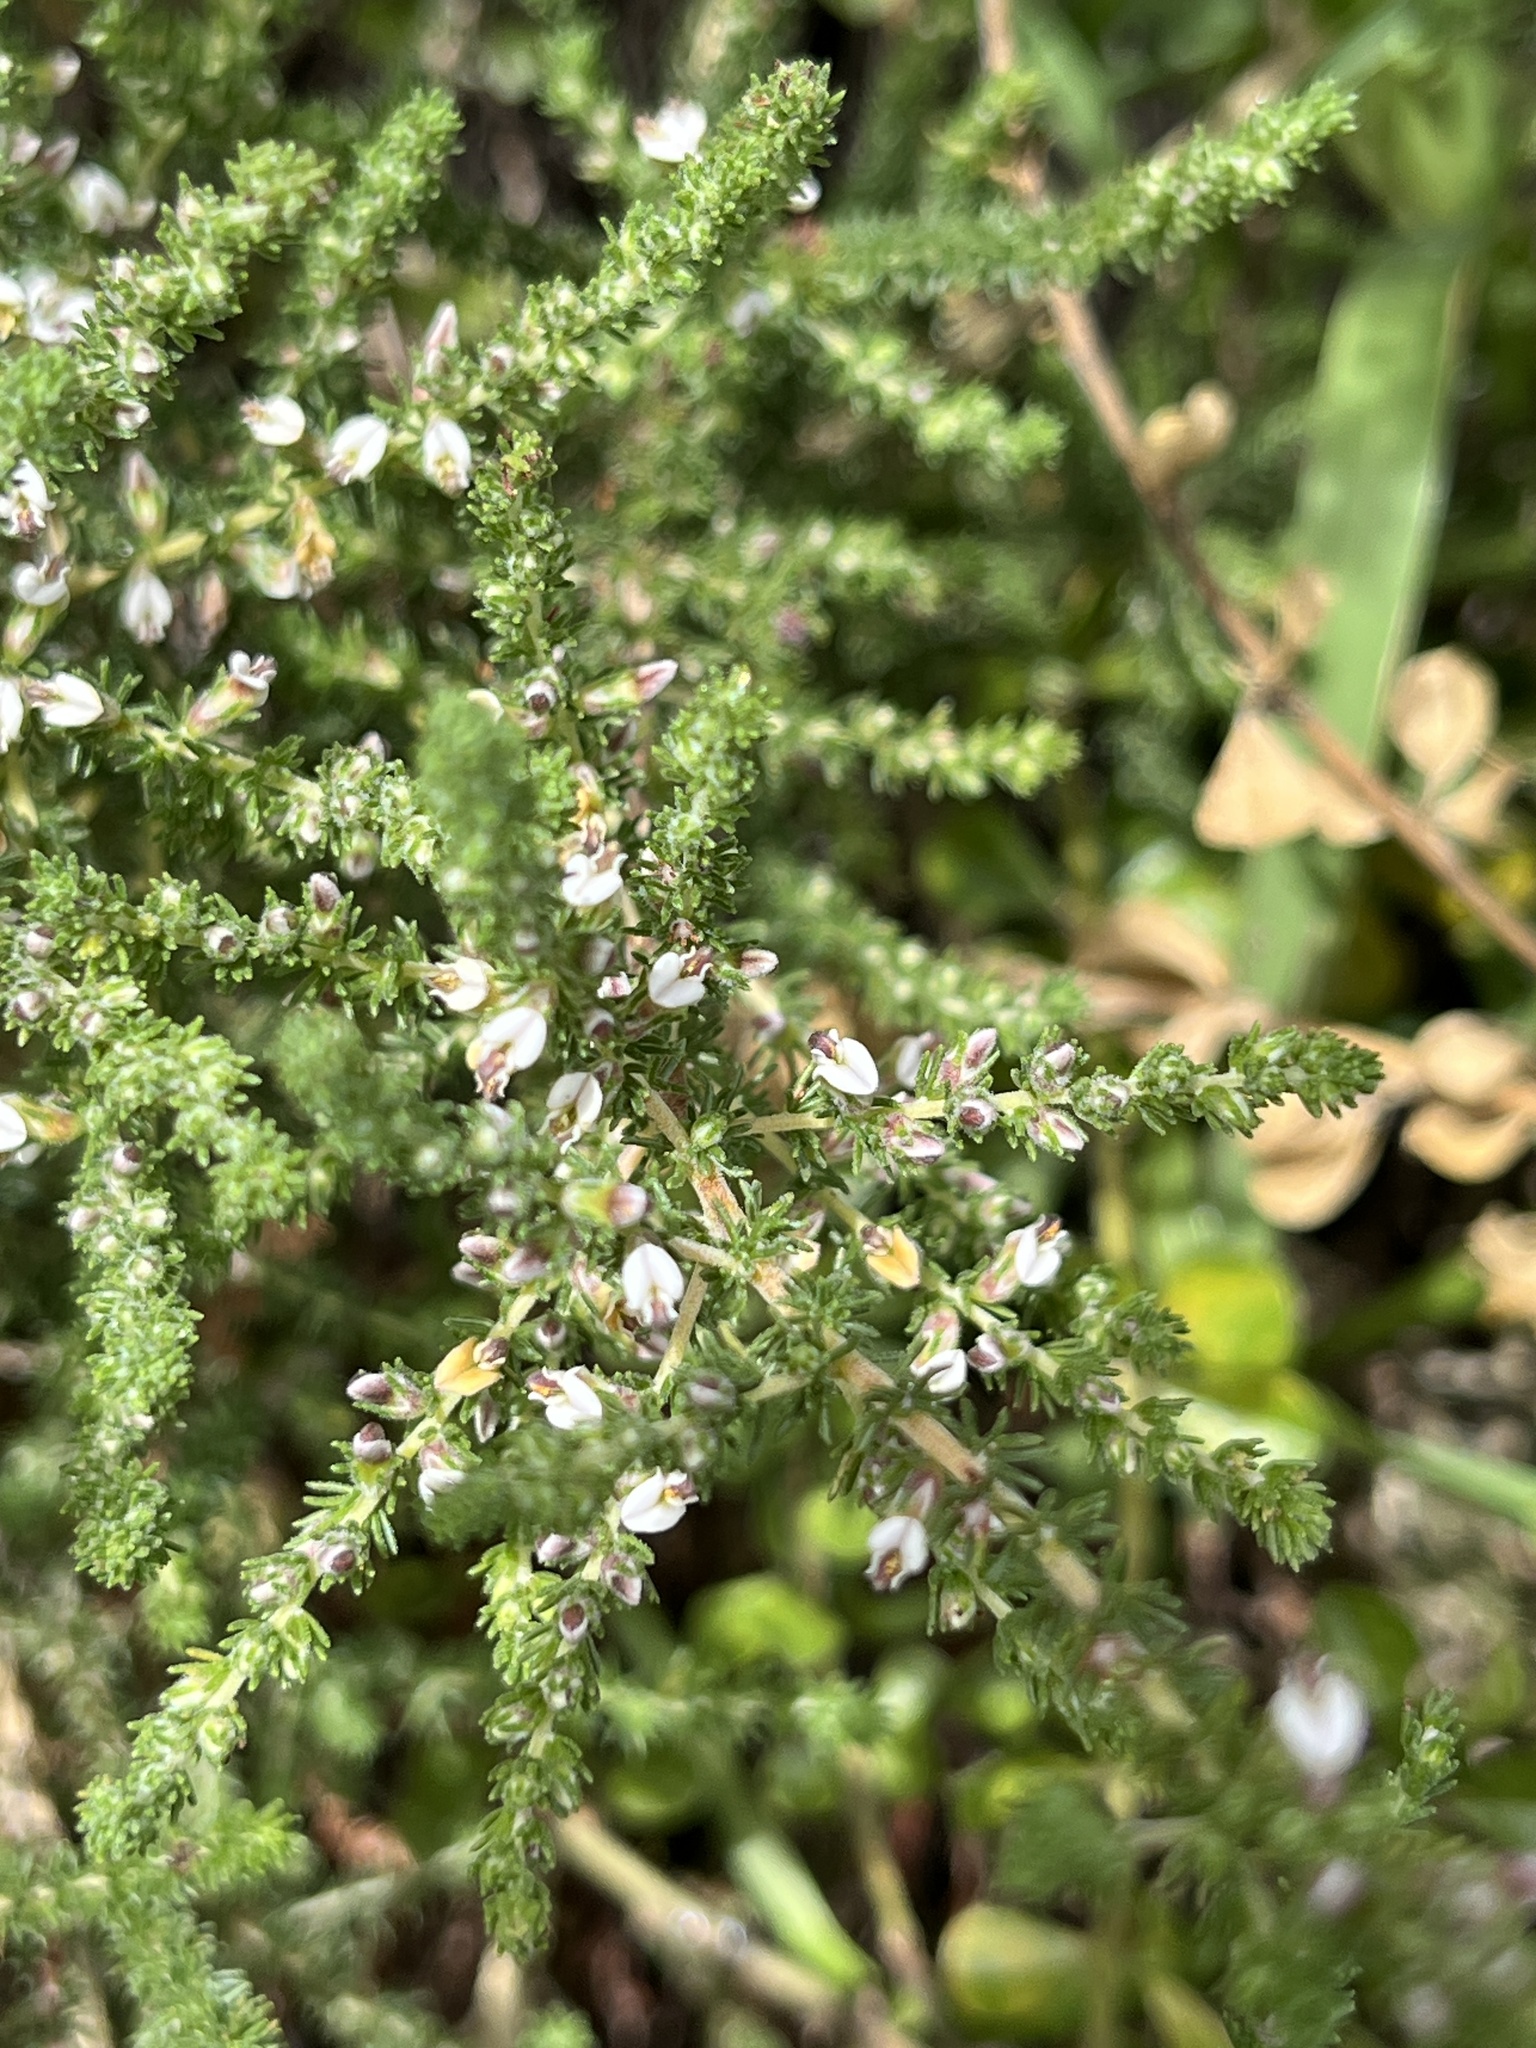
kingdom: Plantae
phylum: Tracheophyta
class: Magnoliopsida
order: Fabales
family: Fabaceae
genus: Aspalathus
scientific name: Aspalathus hispida
